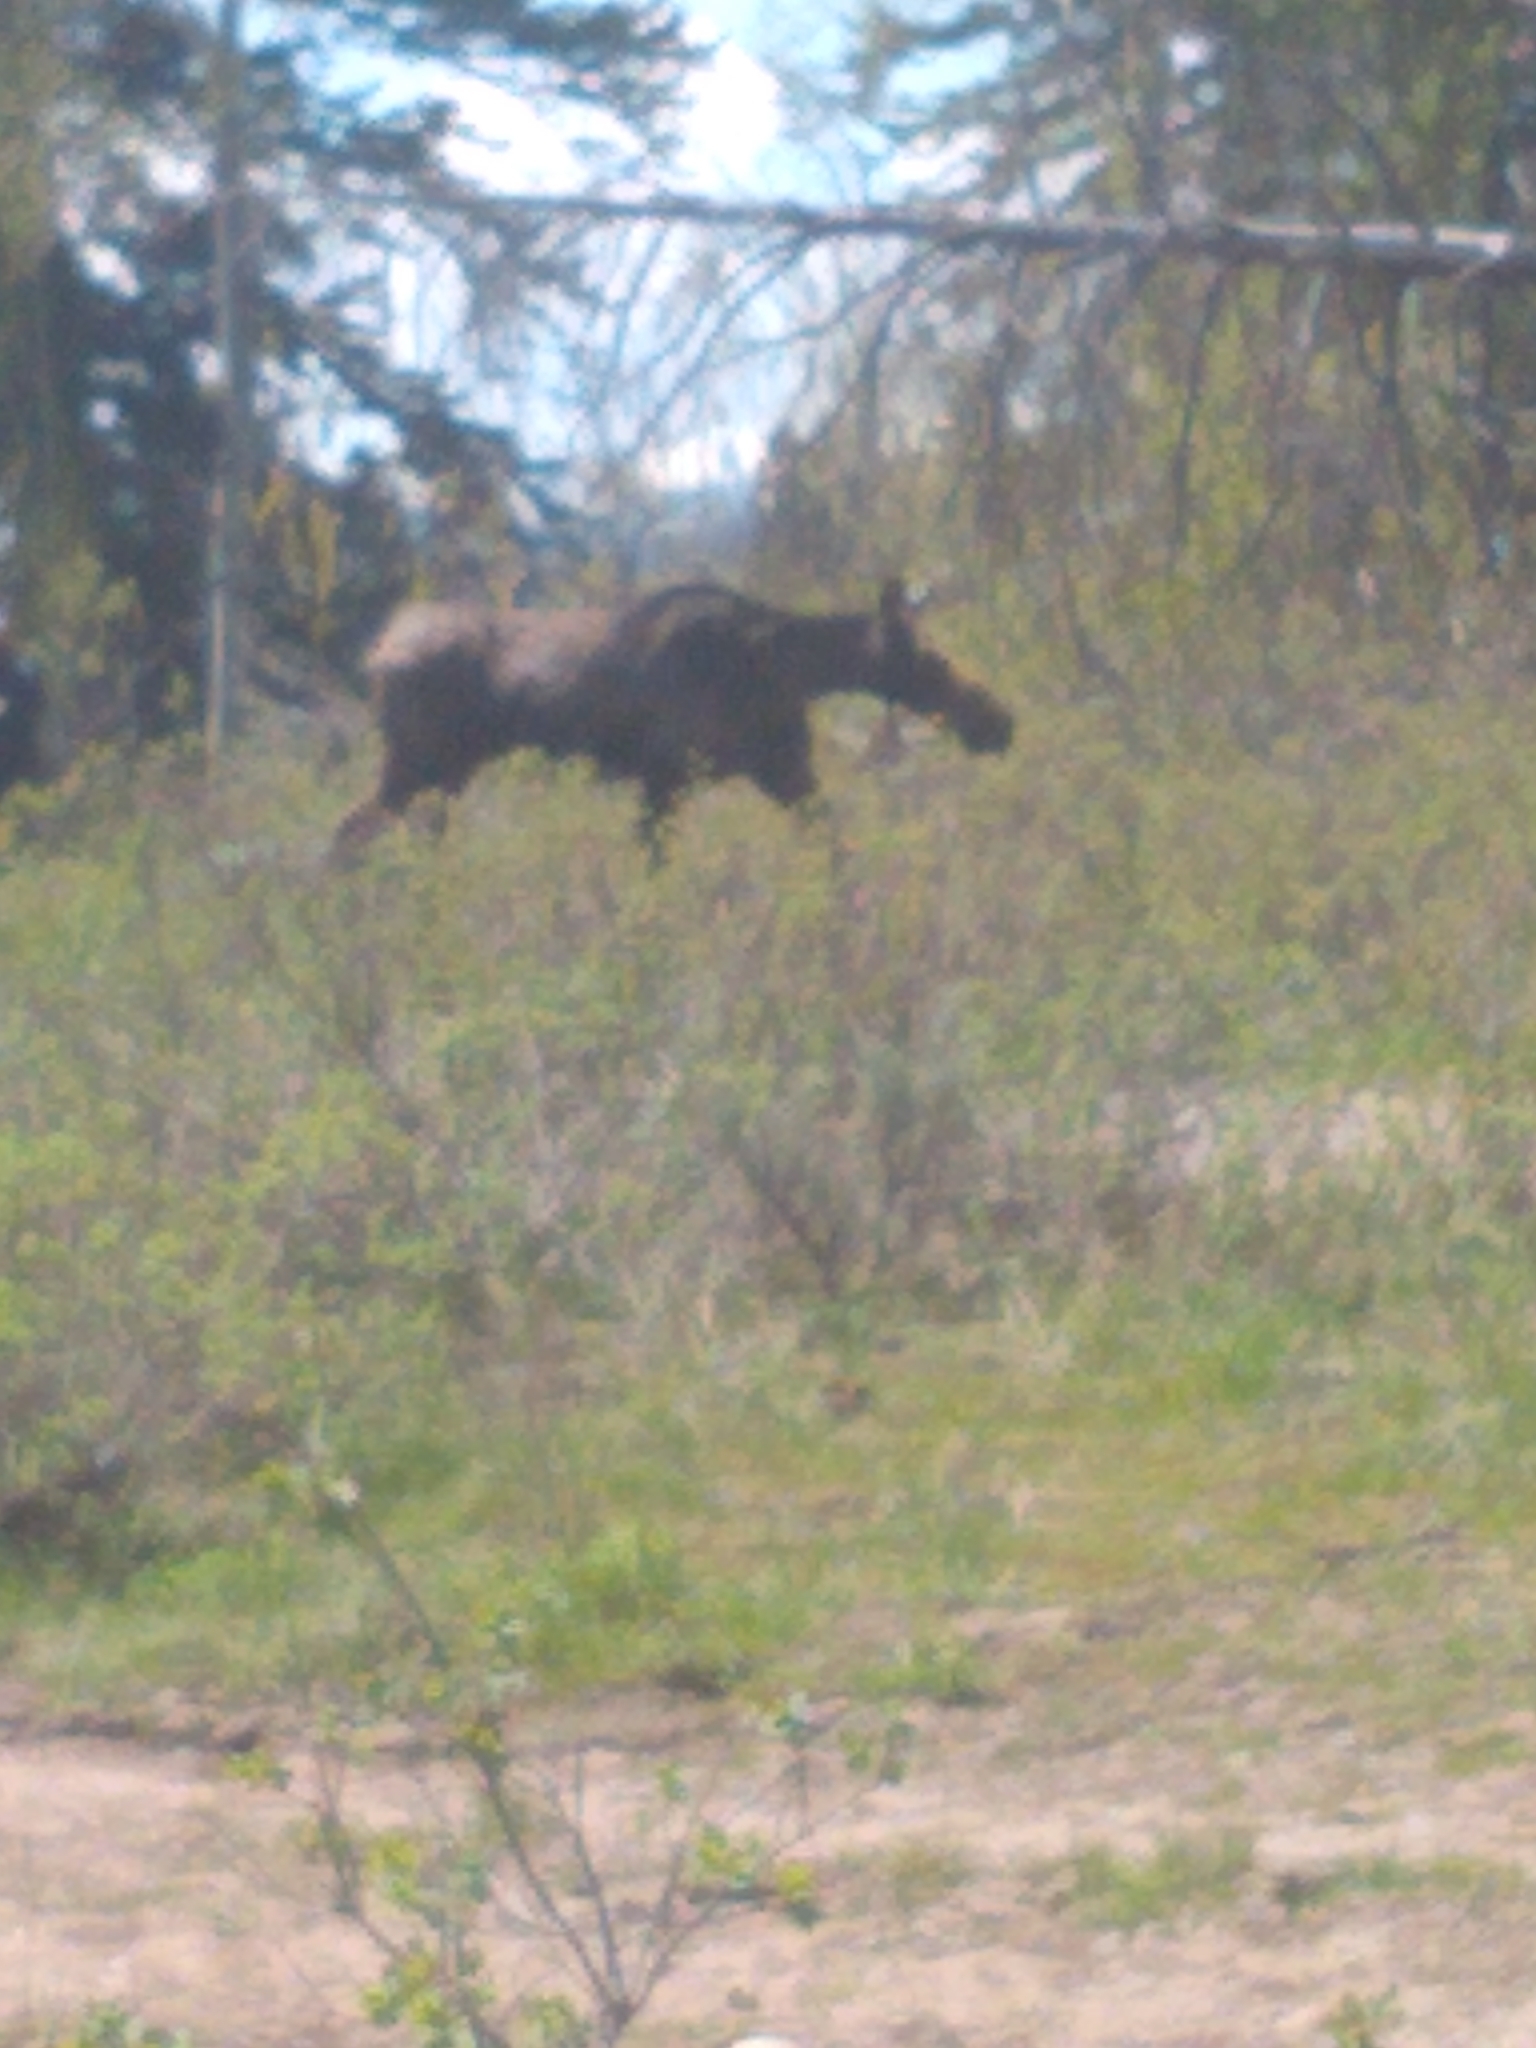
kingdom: Animalia
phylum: Chordata
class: Mammalia
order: Artiodactyla
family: Cervidae
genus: Alces
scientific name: Alces alces
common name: Moose
